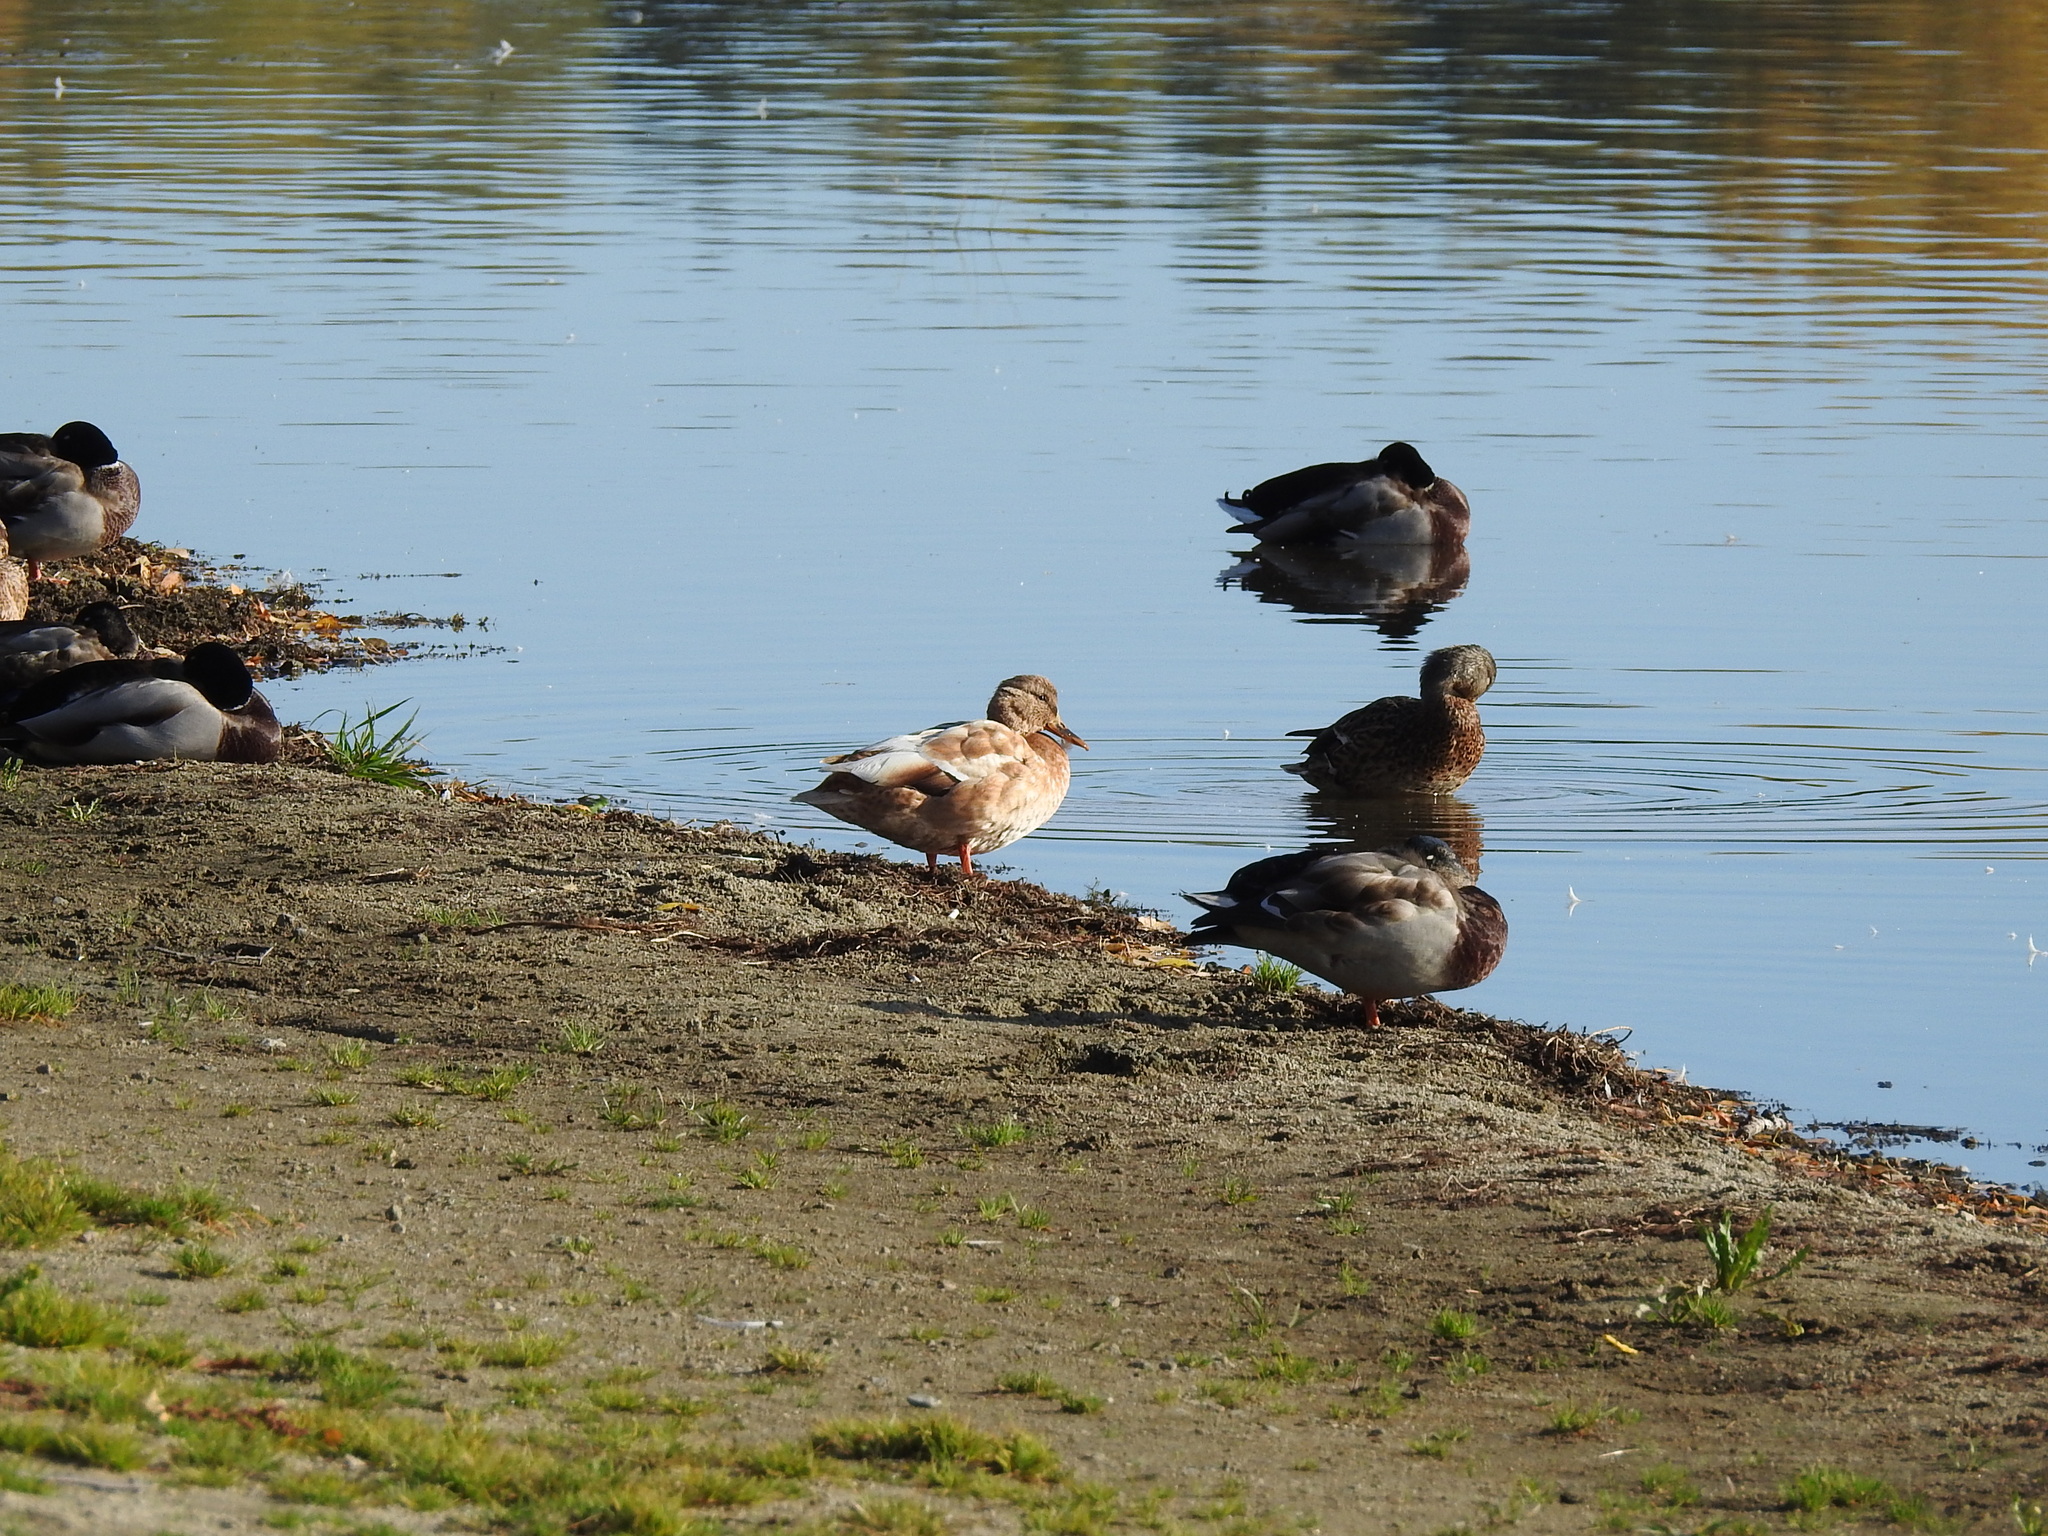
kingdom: Animalia
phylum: Chordata
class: Aves
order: Anseriformes
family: Anatidae
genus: Anas
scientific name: Anas platyrhynchos
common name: Mallard
